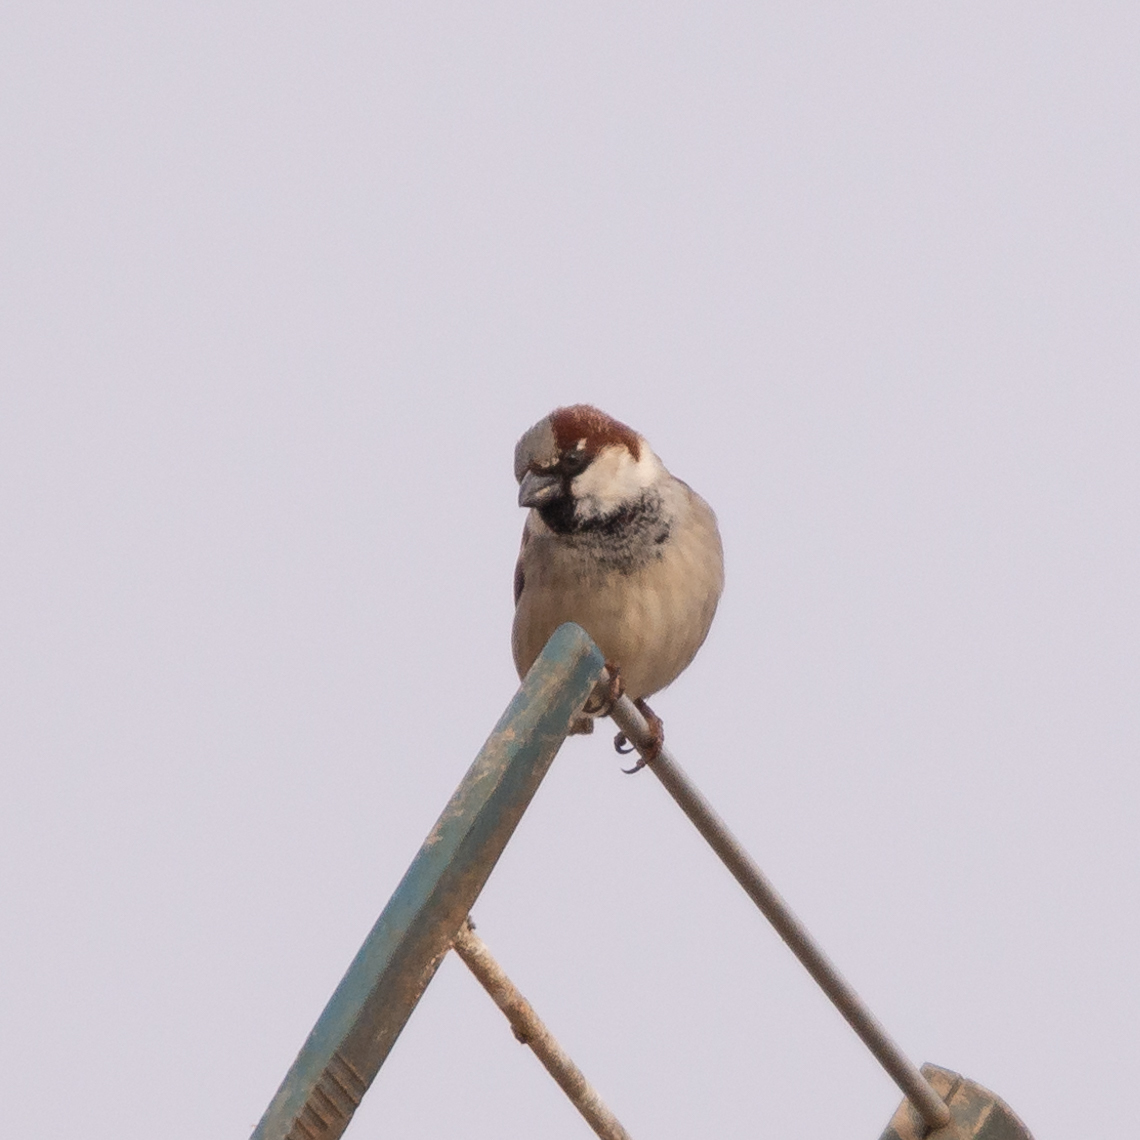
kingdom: Animalia
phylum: Chordata
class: Aves
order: Passeriformes
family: Passeridae
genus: Passer
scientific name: Passer domesticus
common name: House sparrow
